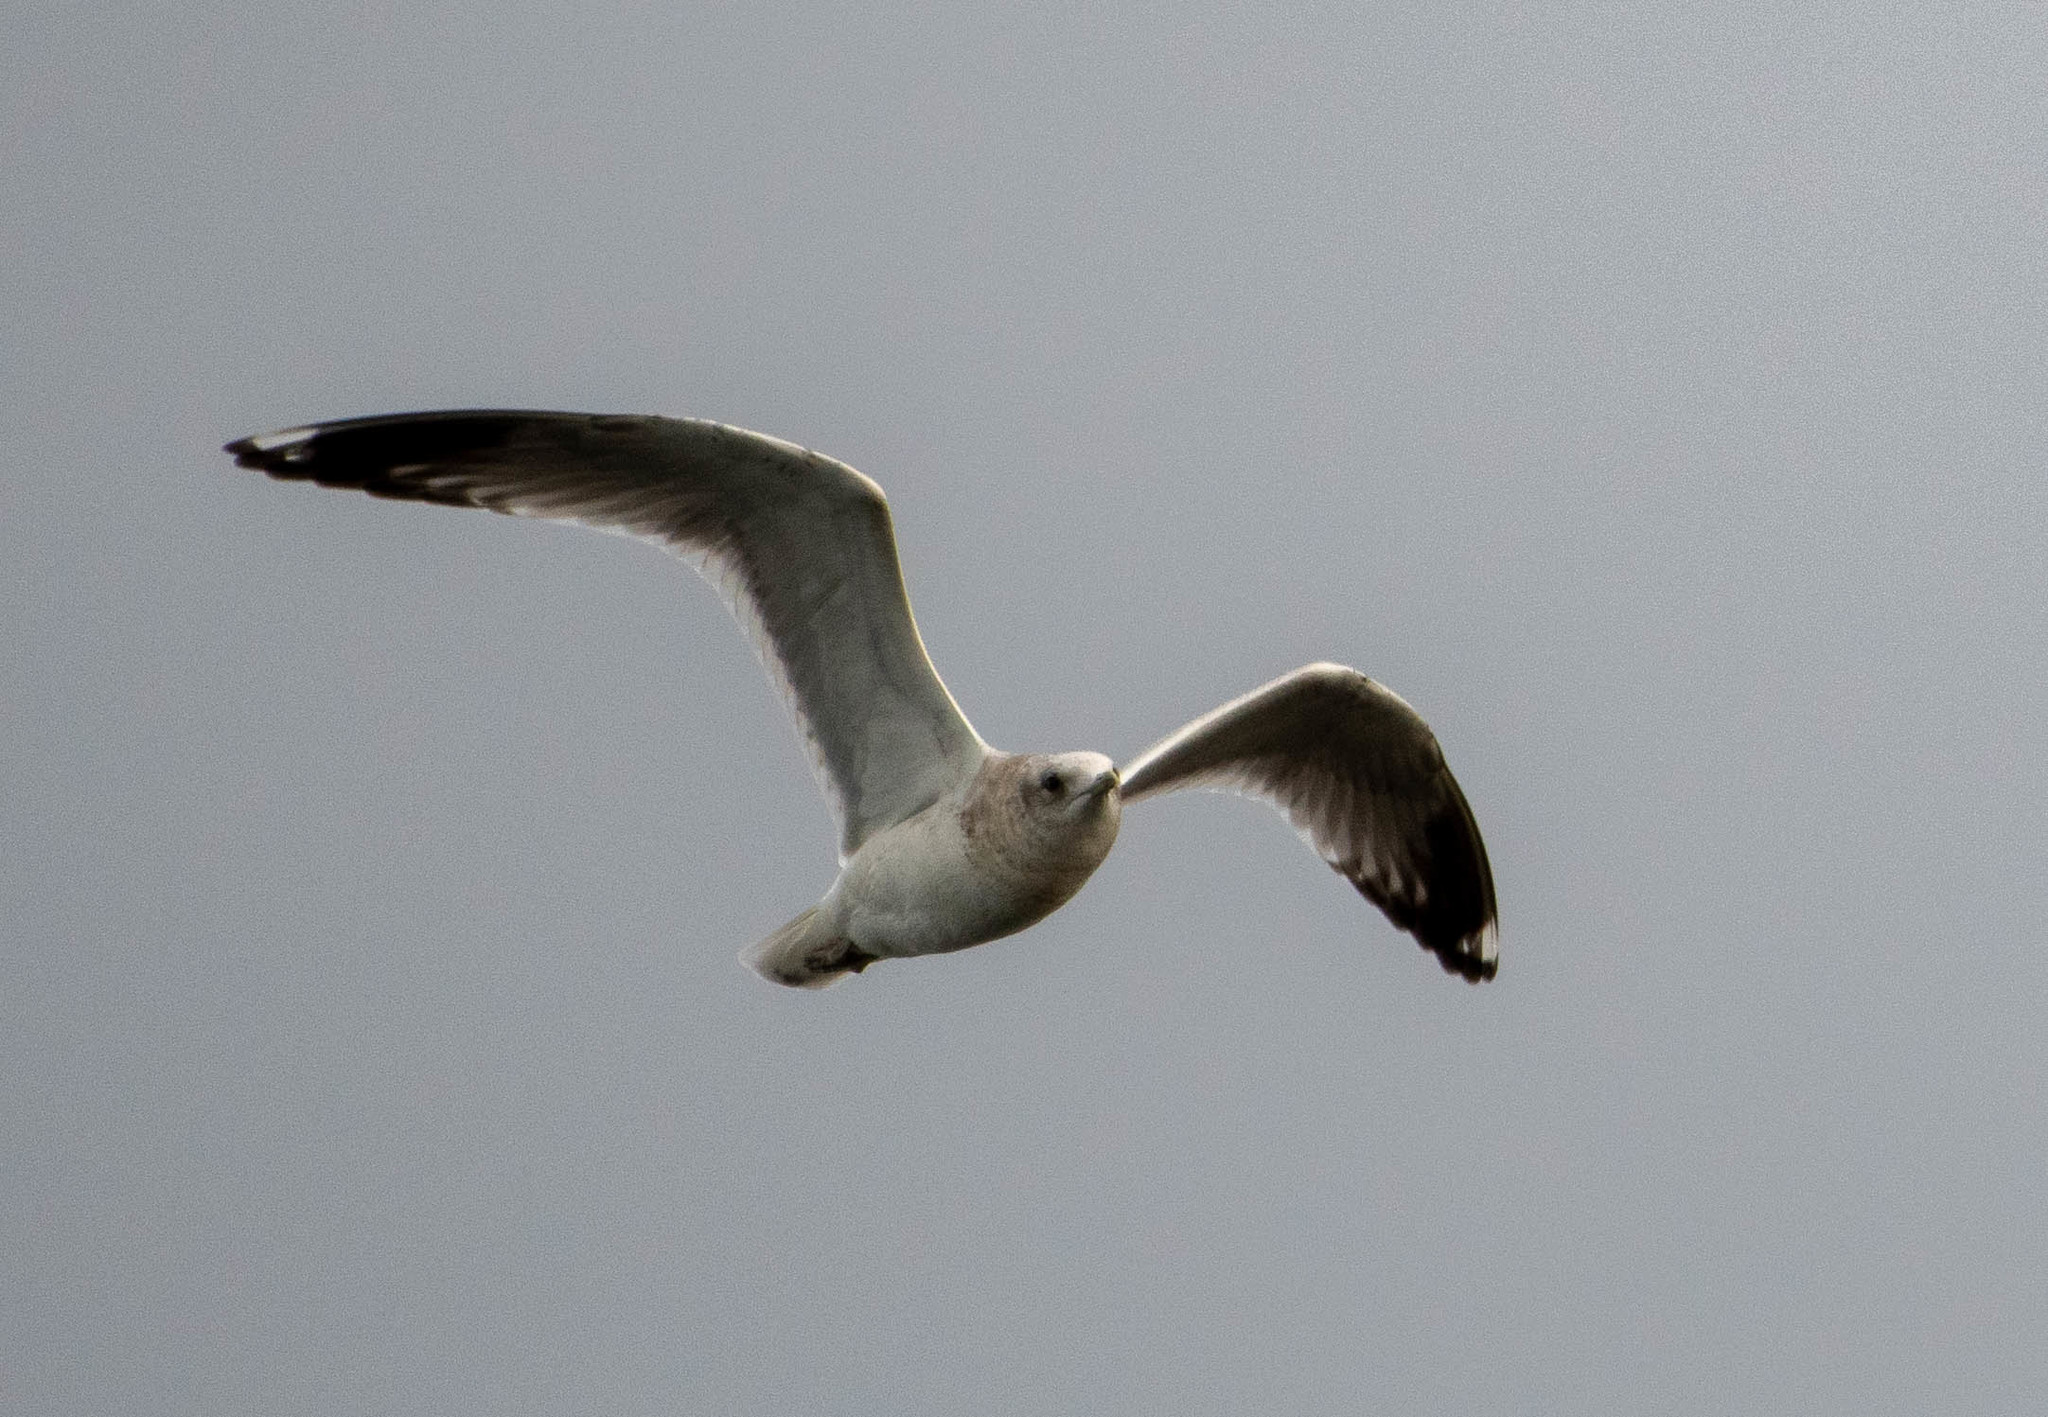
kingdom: Animalia
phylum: Chordata
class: Aves
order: Charadriiformes
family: Laridae
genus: Larus
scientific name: Larus brachyrhynchus
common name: Short-billed gull
